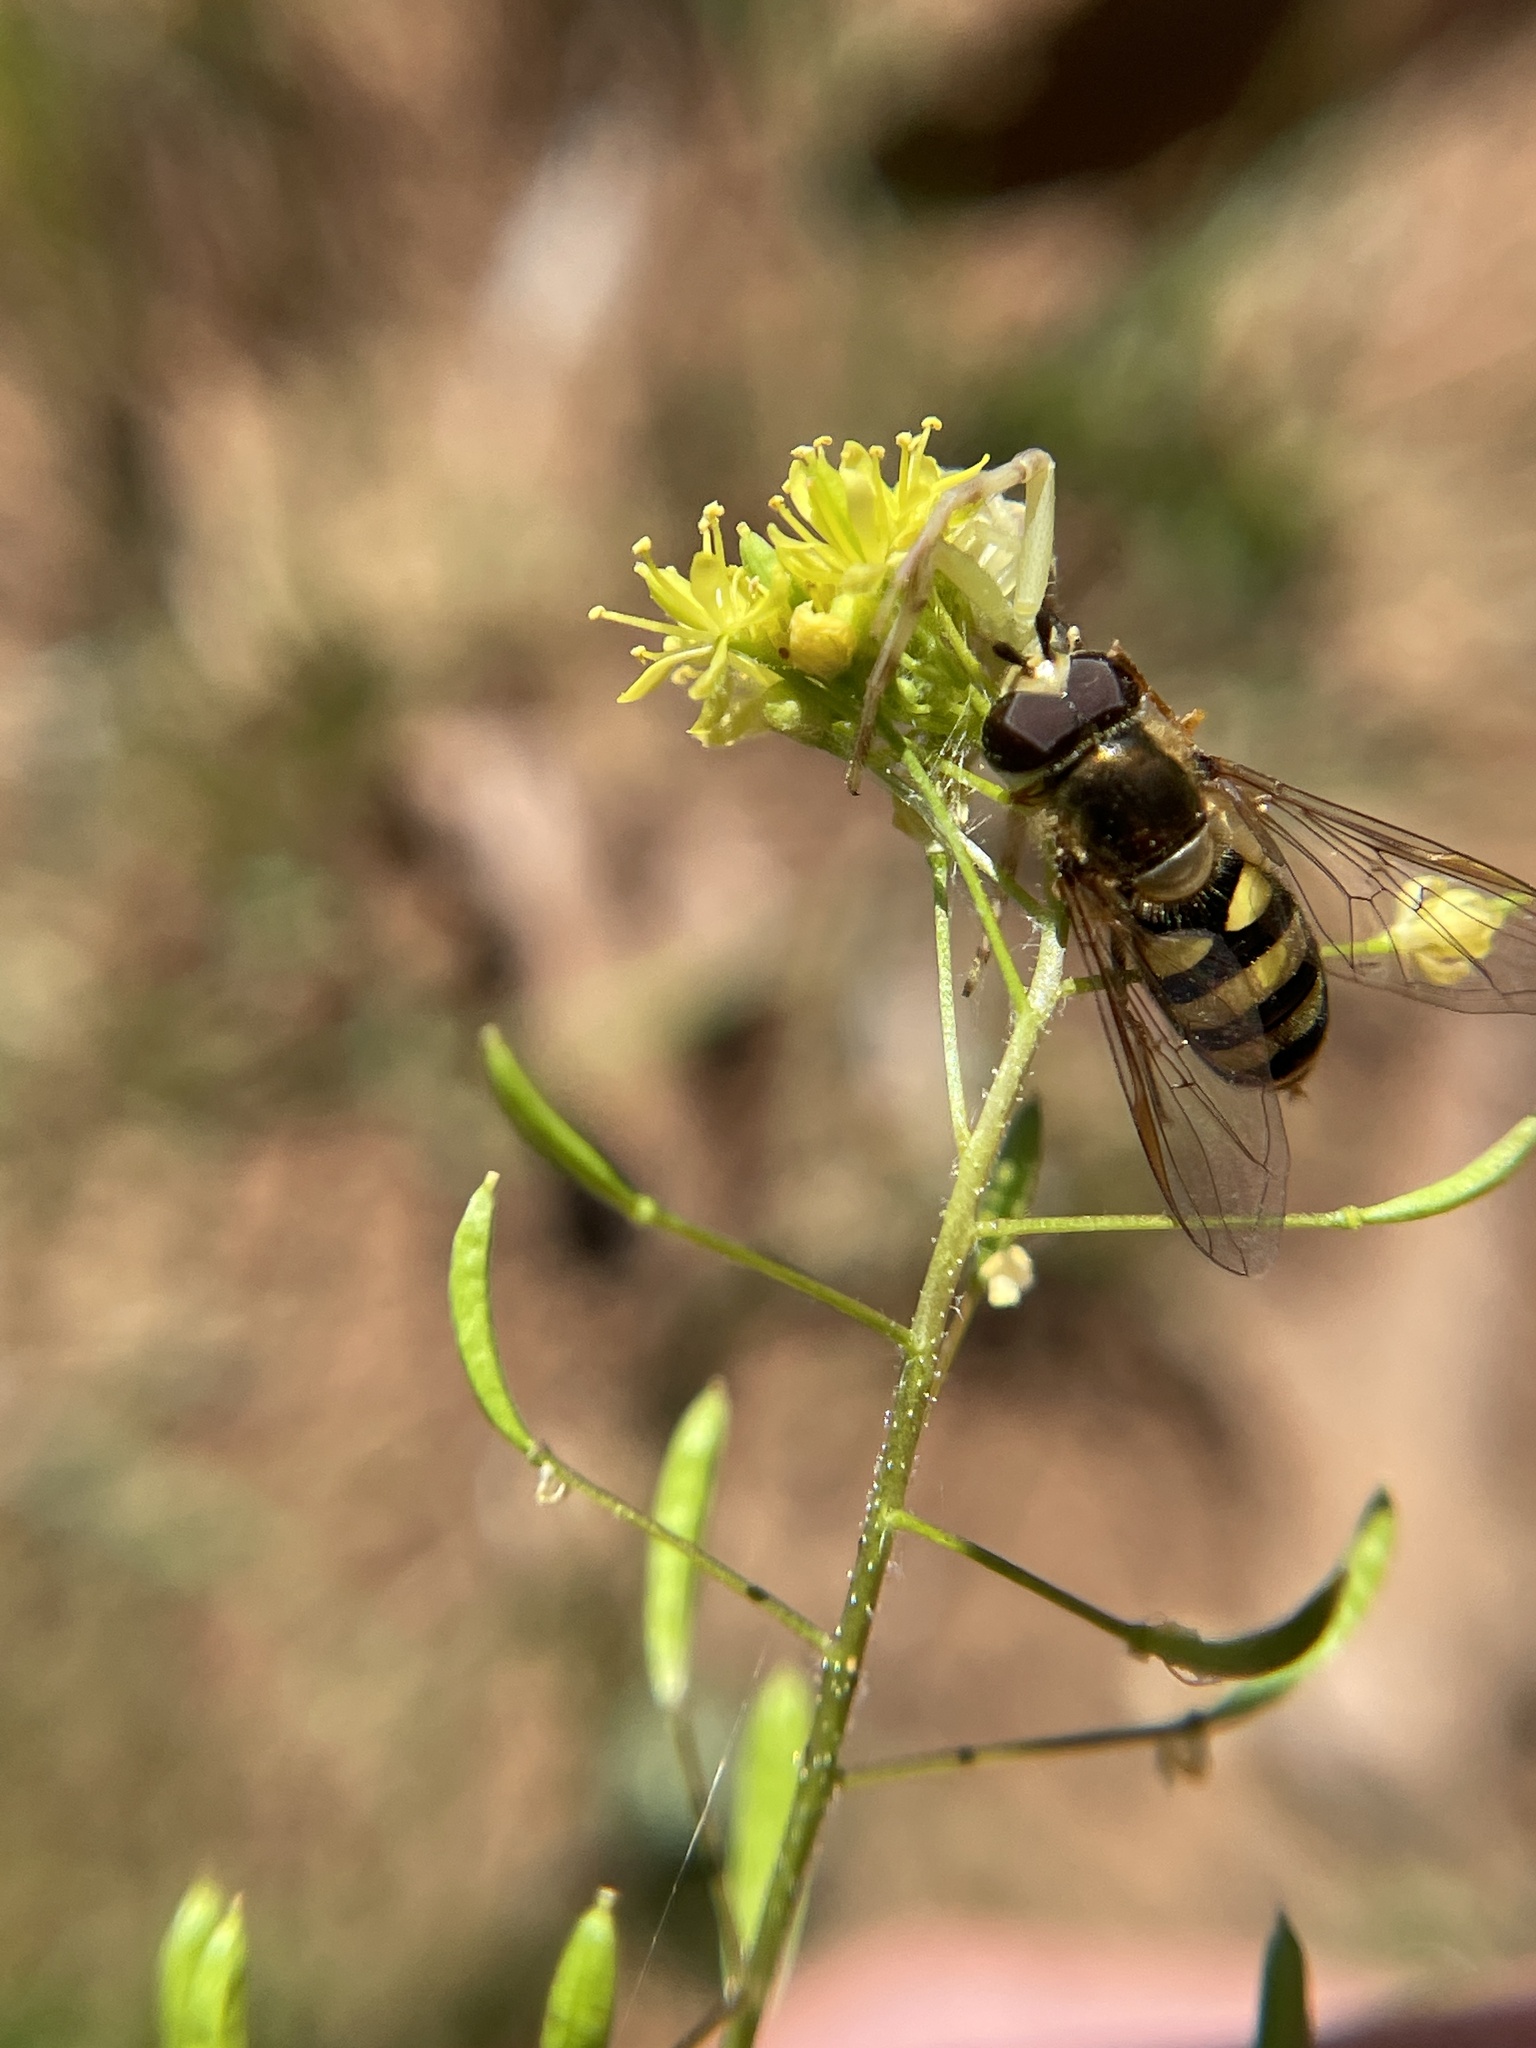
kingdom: Animalia
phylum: Arthropoda
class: Insecta
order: Diptera
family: Syrphidae
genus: Eupeodes
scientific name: Eupeodes
